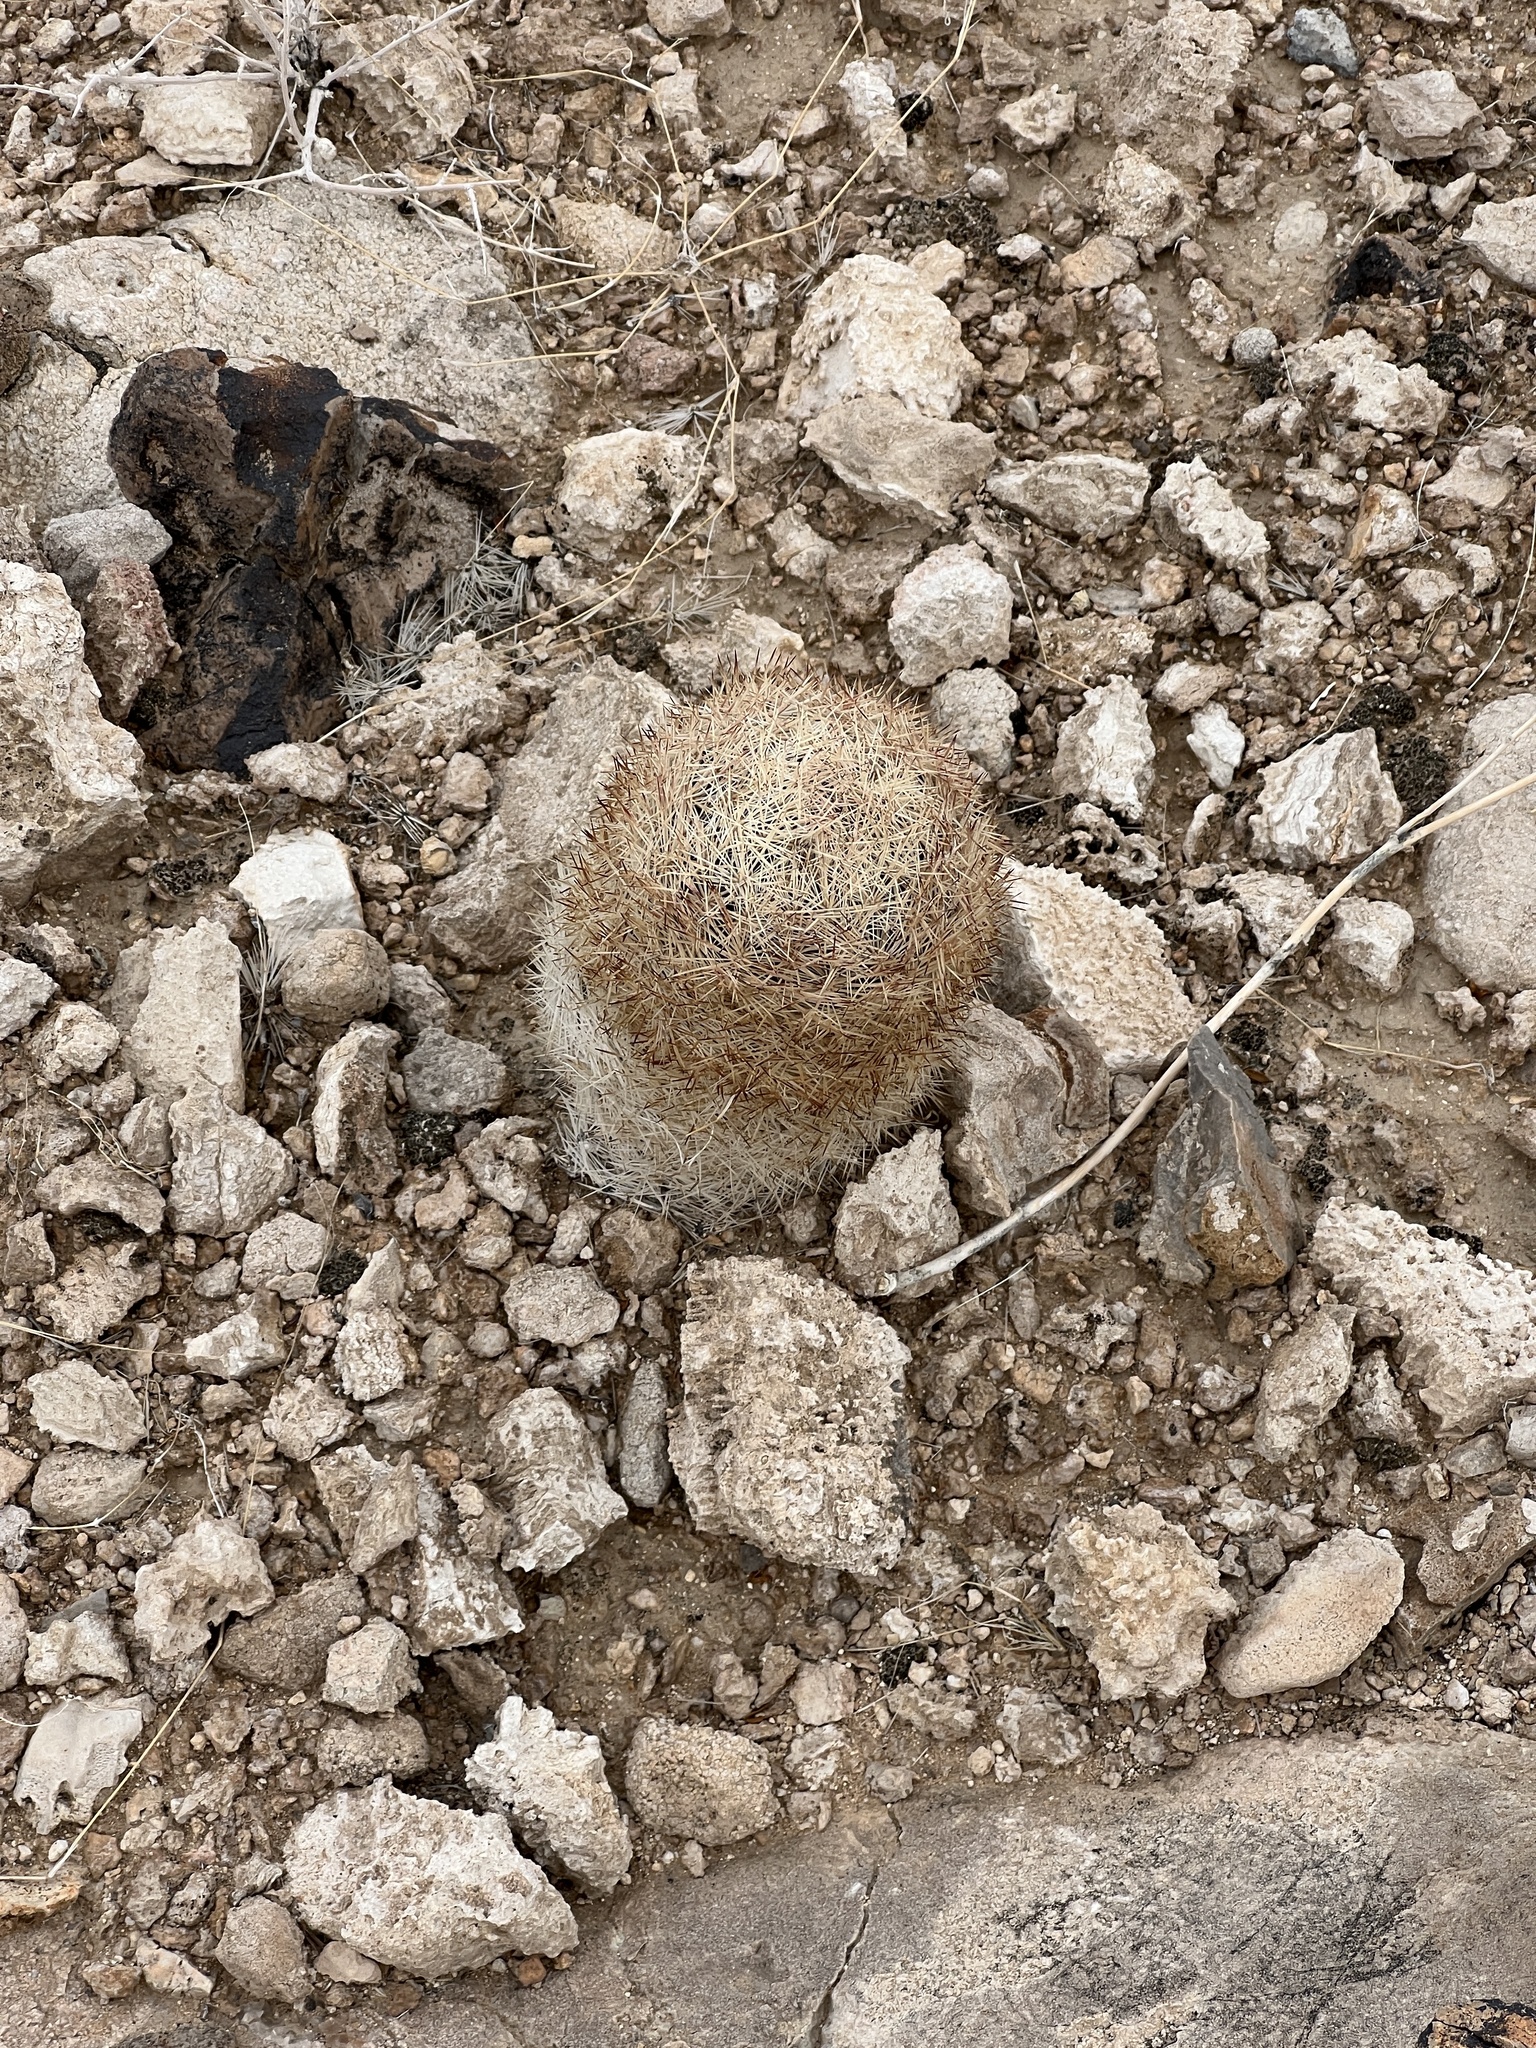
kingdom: Plantae
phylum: Tracheophyta
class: Magnoliopsida
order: Caryophyllales
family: Cactaceae
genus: Pelecyphora
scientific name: Pelecyphora dasyacantha
